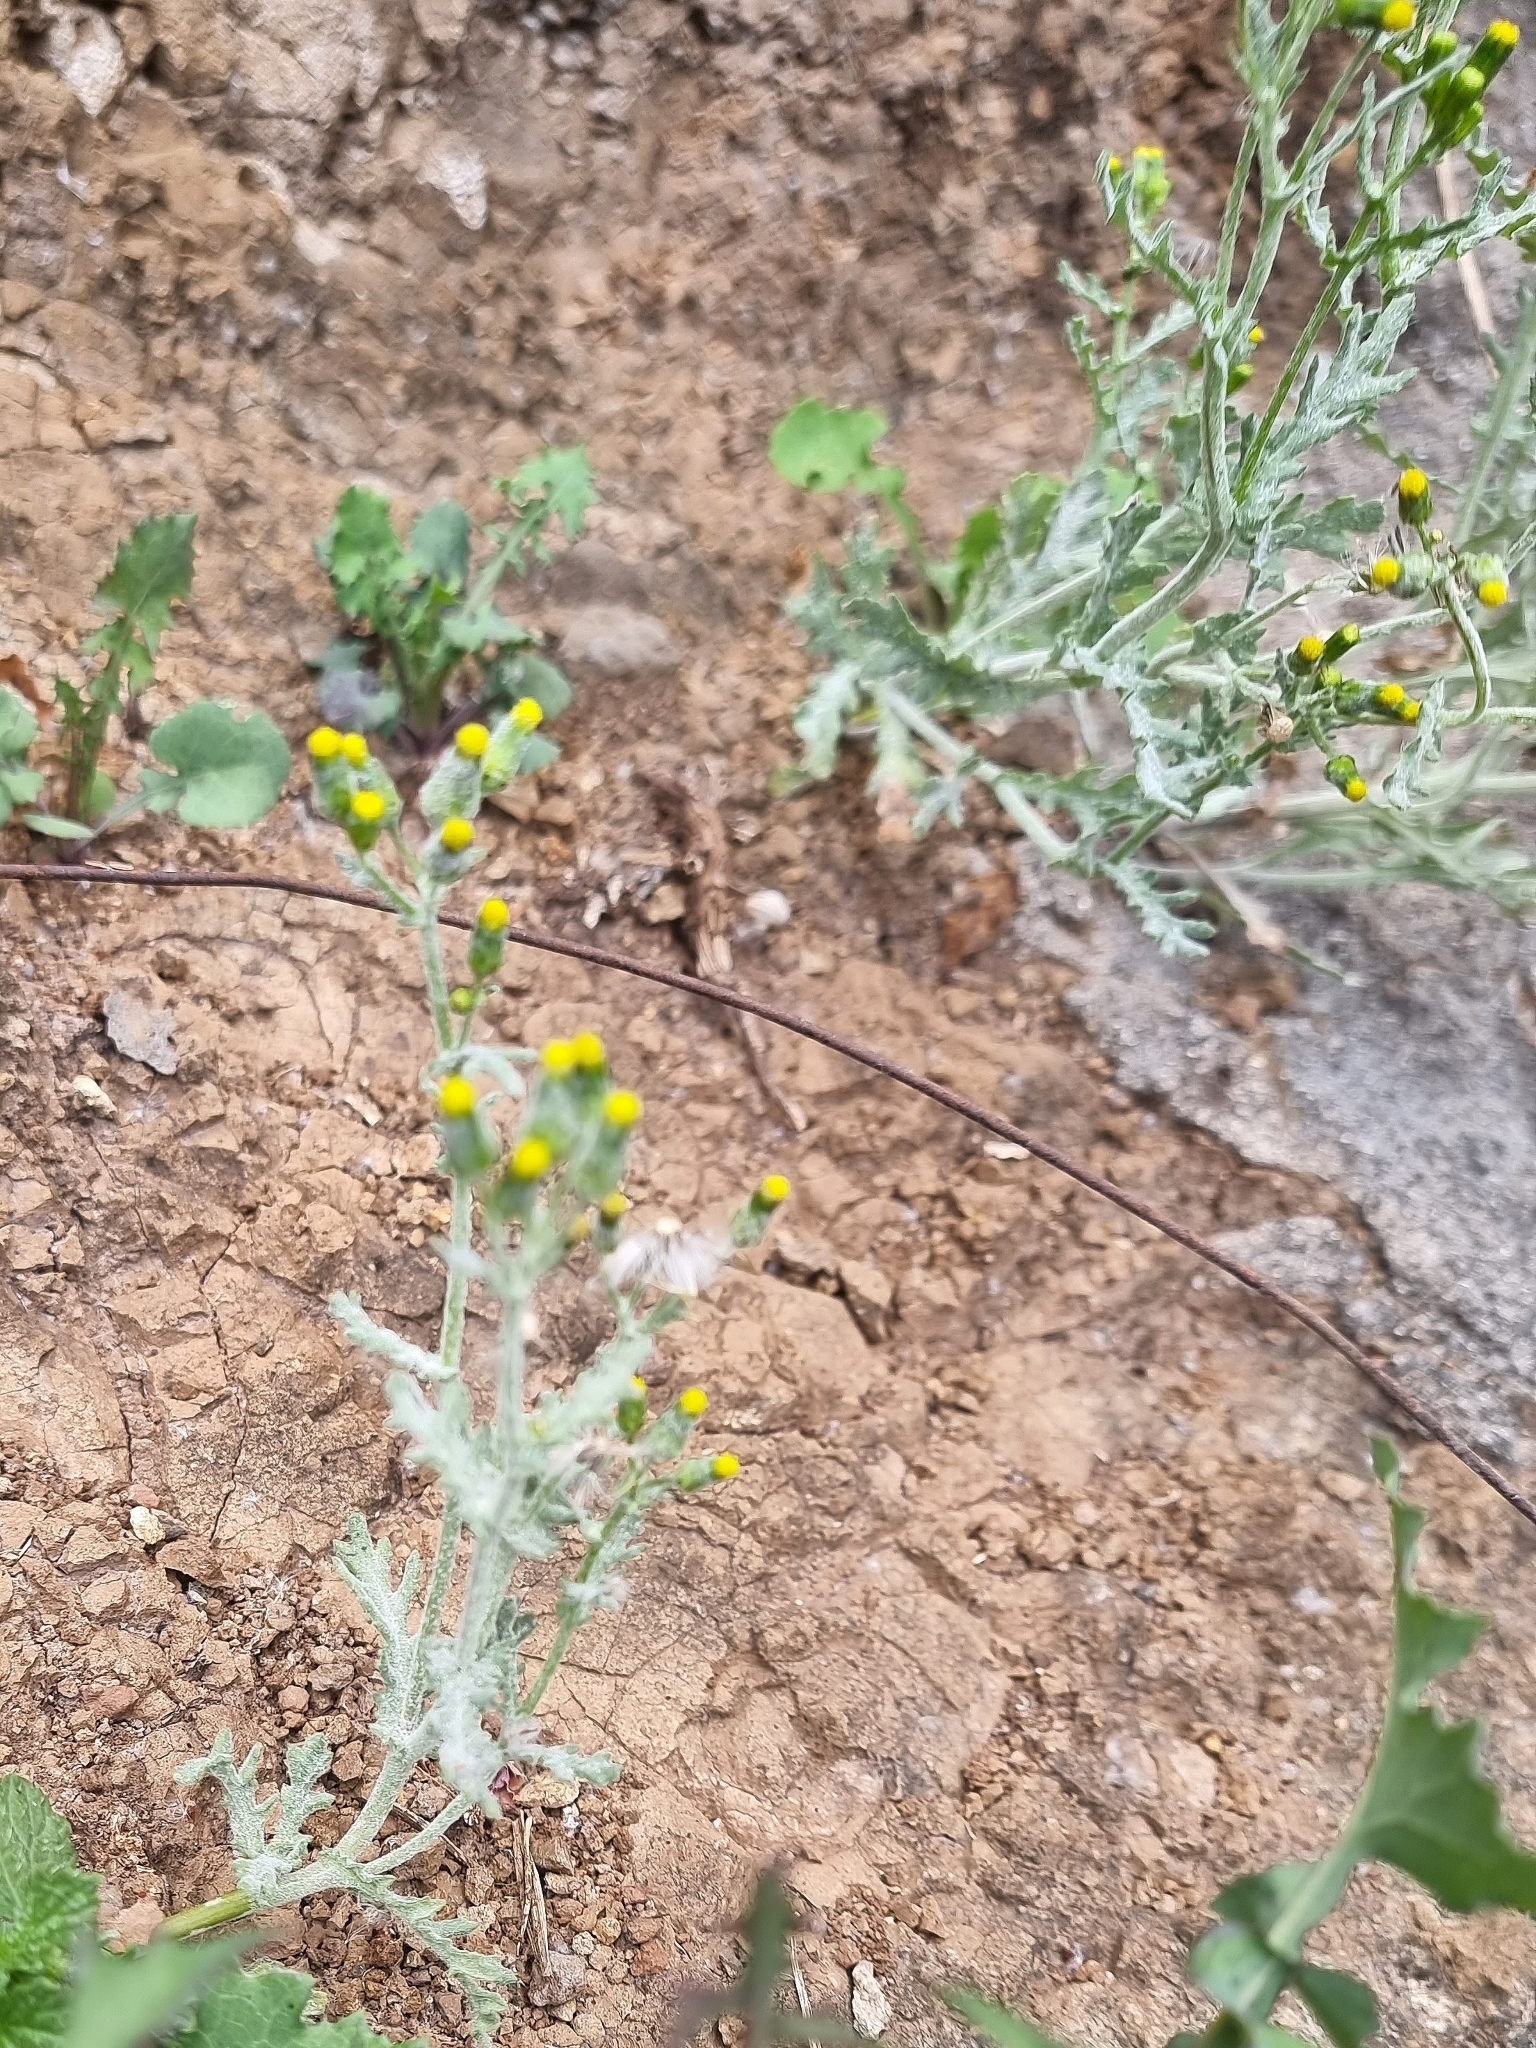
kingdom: Plantae
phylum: Tracheophyta
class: Magnoliopsida
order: Asterales
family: Asteraceae
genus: Senecio
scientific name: Senecio vulgaris
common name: Old-man-in-the-spring
